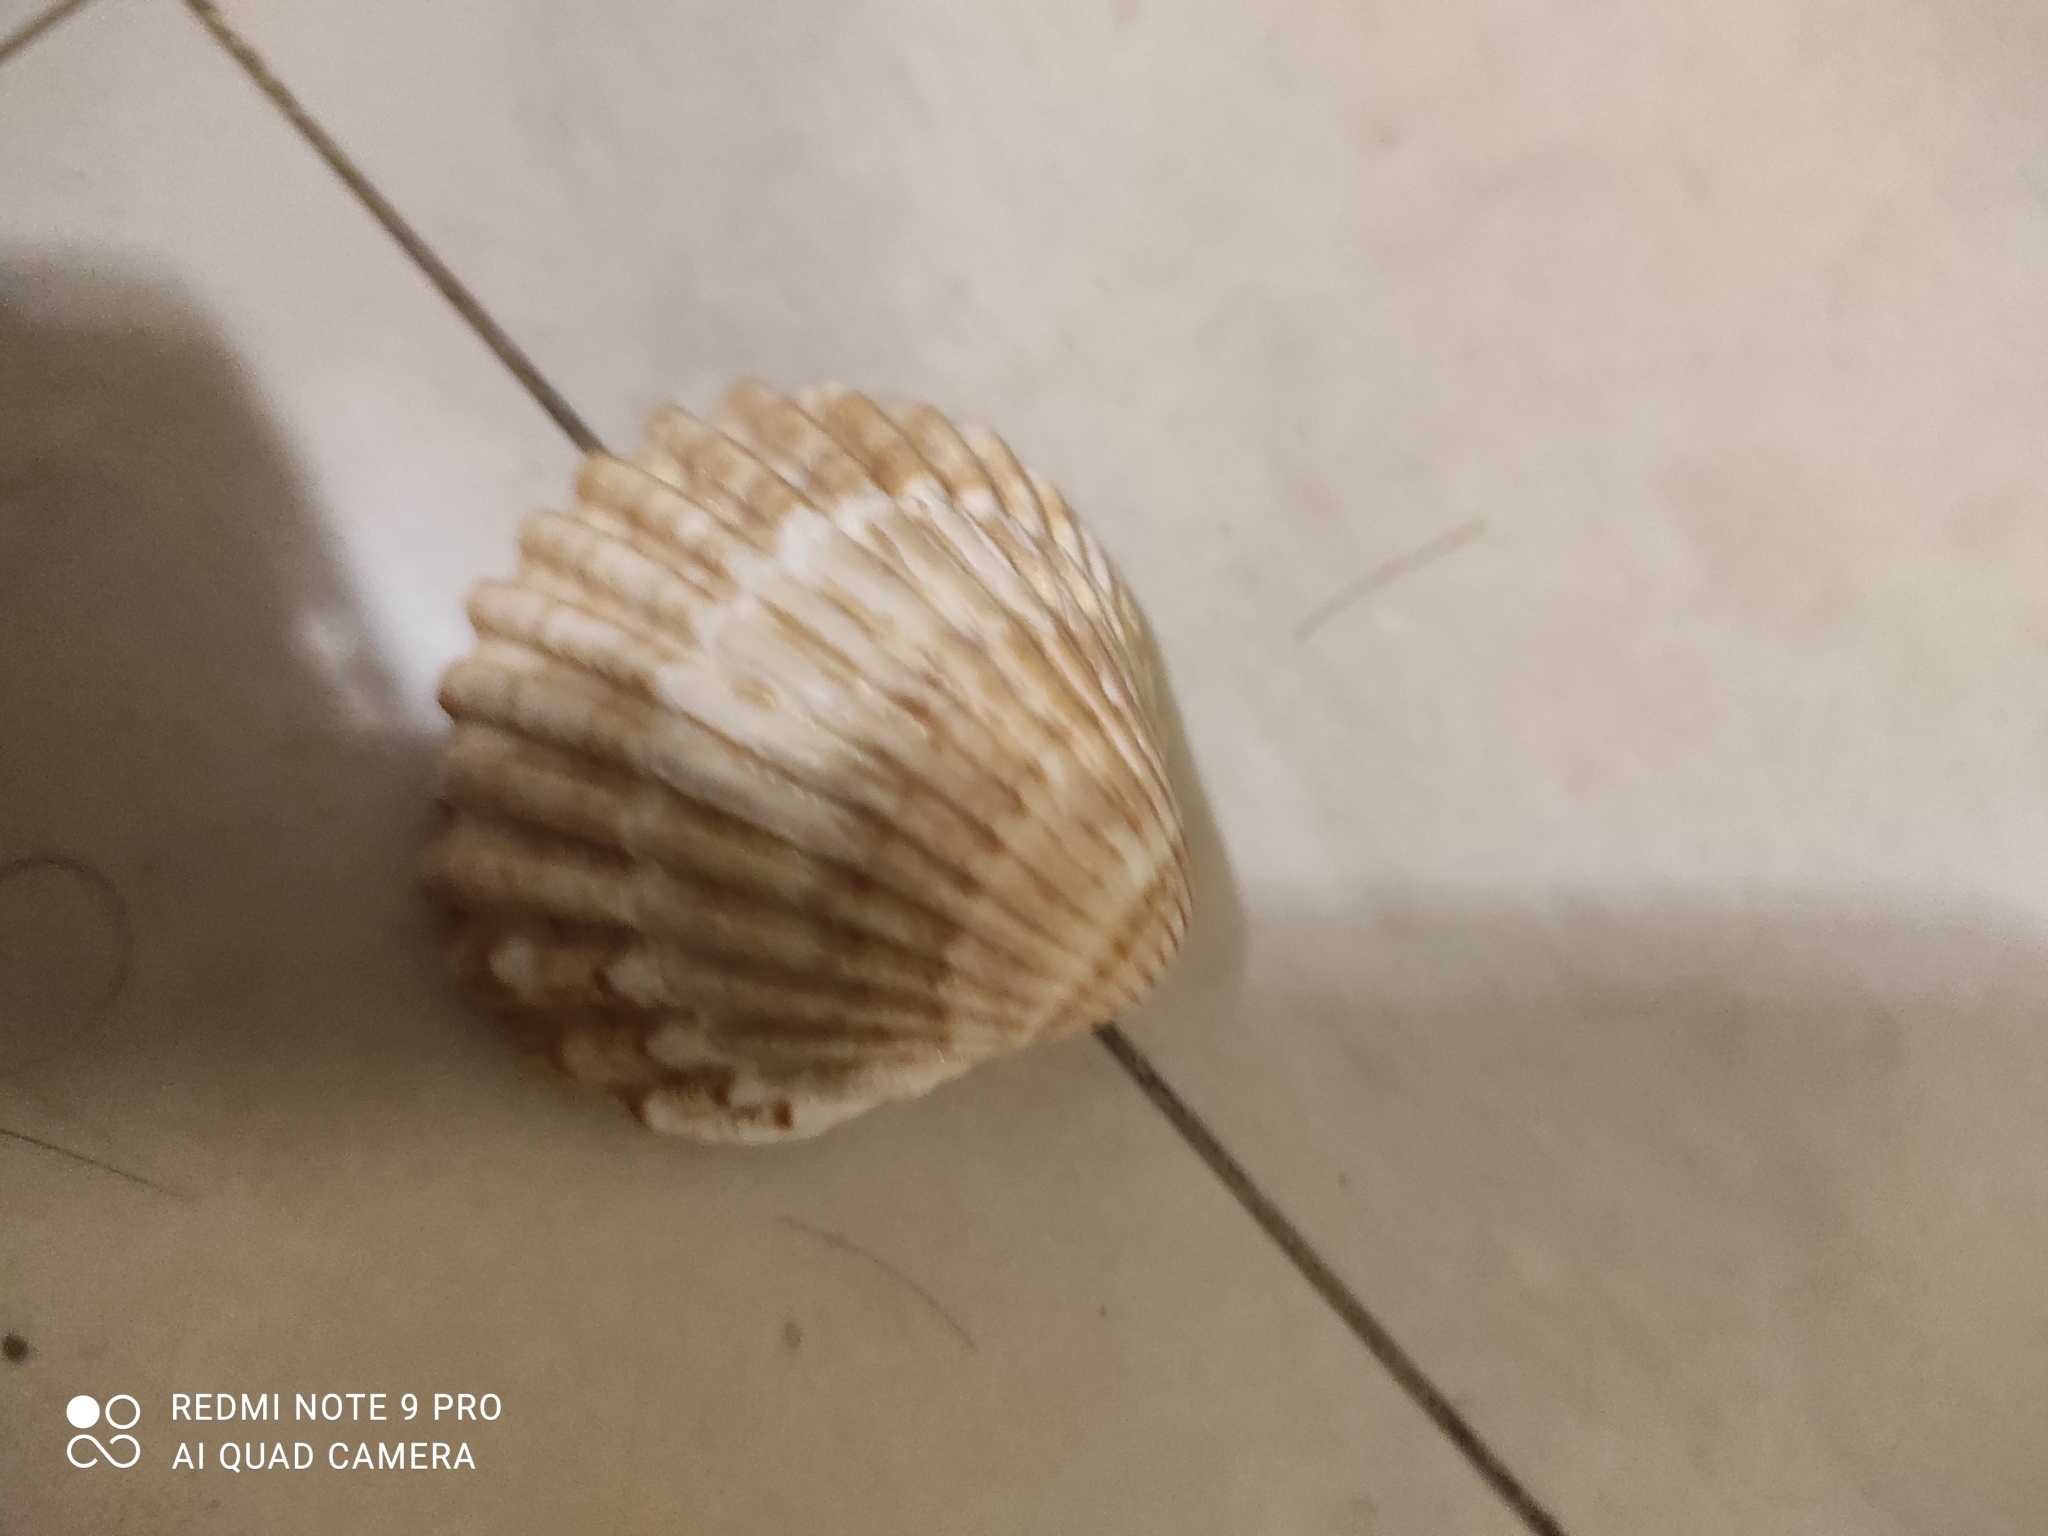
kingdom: Animalia
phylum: Mollusca
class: Bivalvia
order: Cardiida
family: Cardiidae
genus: Acanthocardia
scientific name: Acanthocardia tuberculata
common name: Rough cockle
